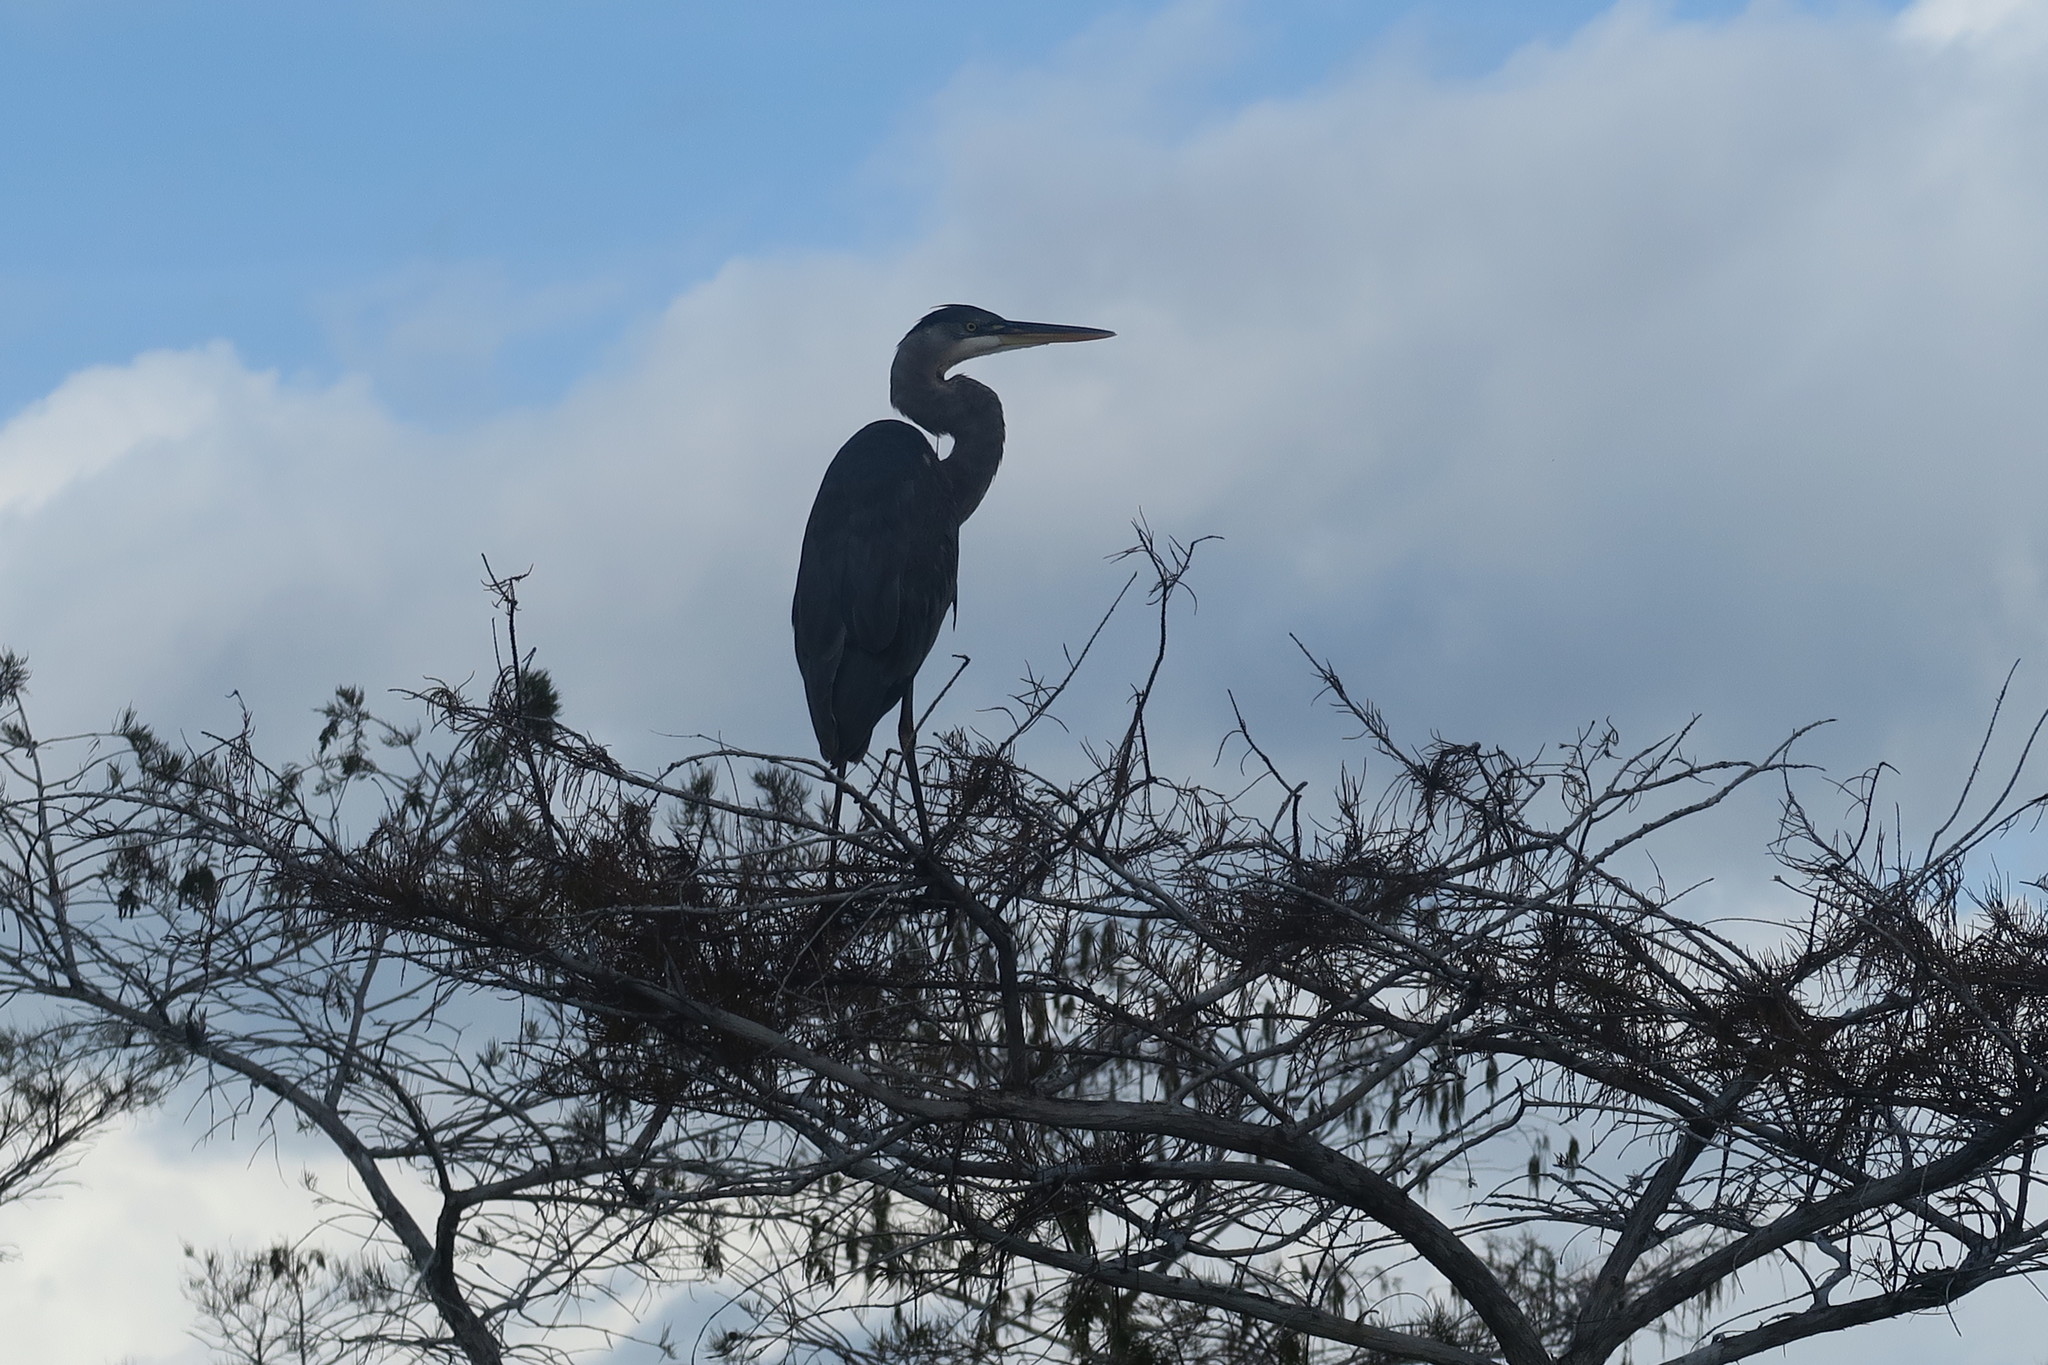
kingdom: Animalia
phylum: Chordata
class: Aves
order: Pelecaniformes
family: Ardeidae
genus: Ardea
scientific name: Ardea herodias
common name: Great blue heron
